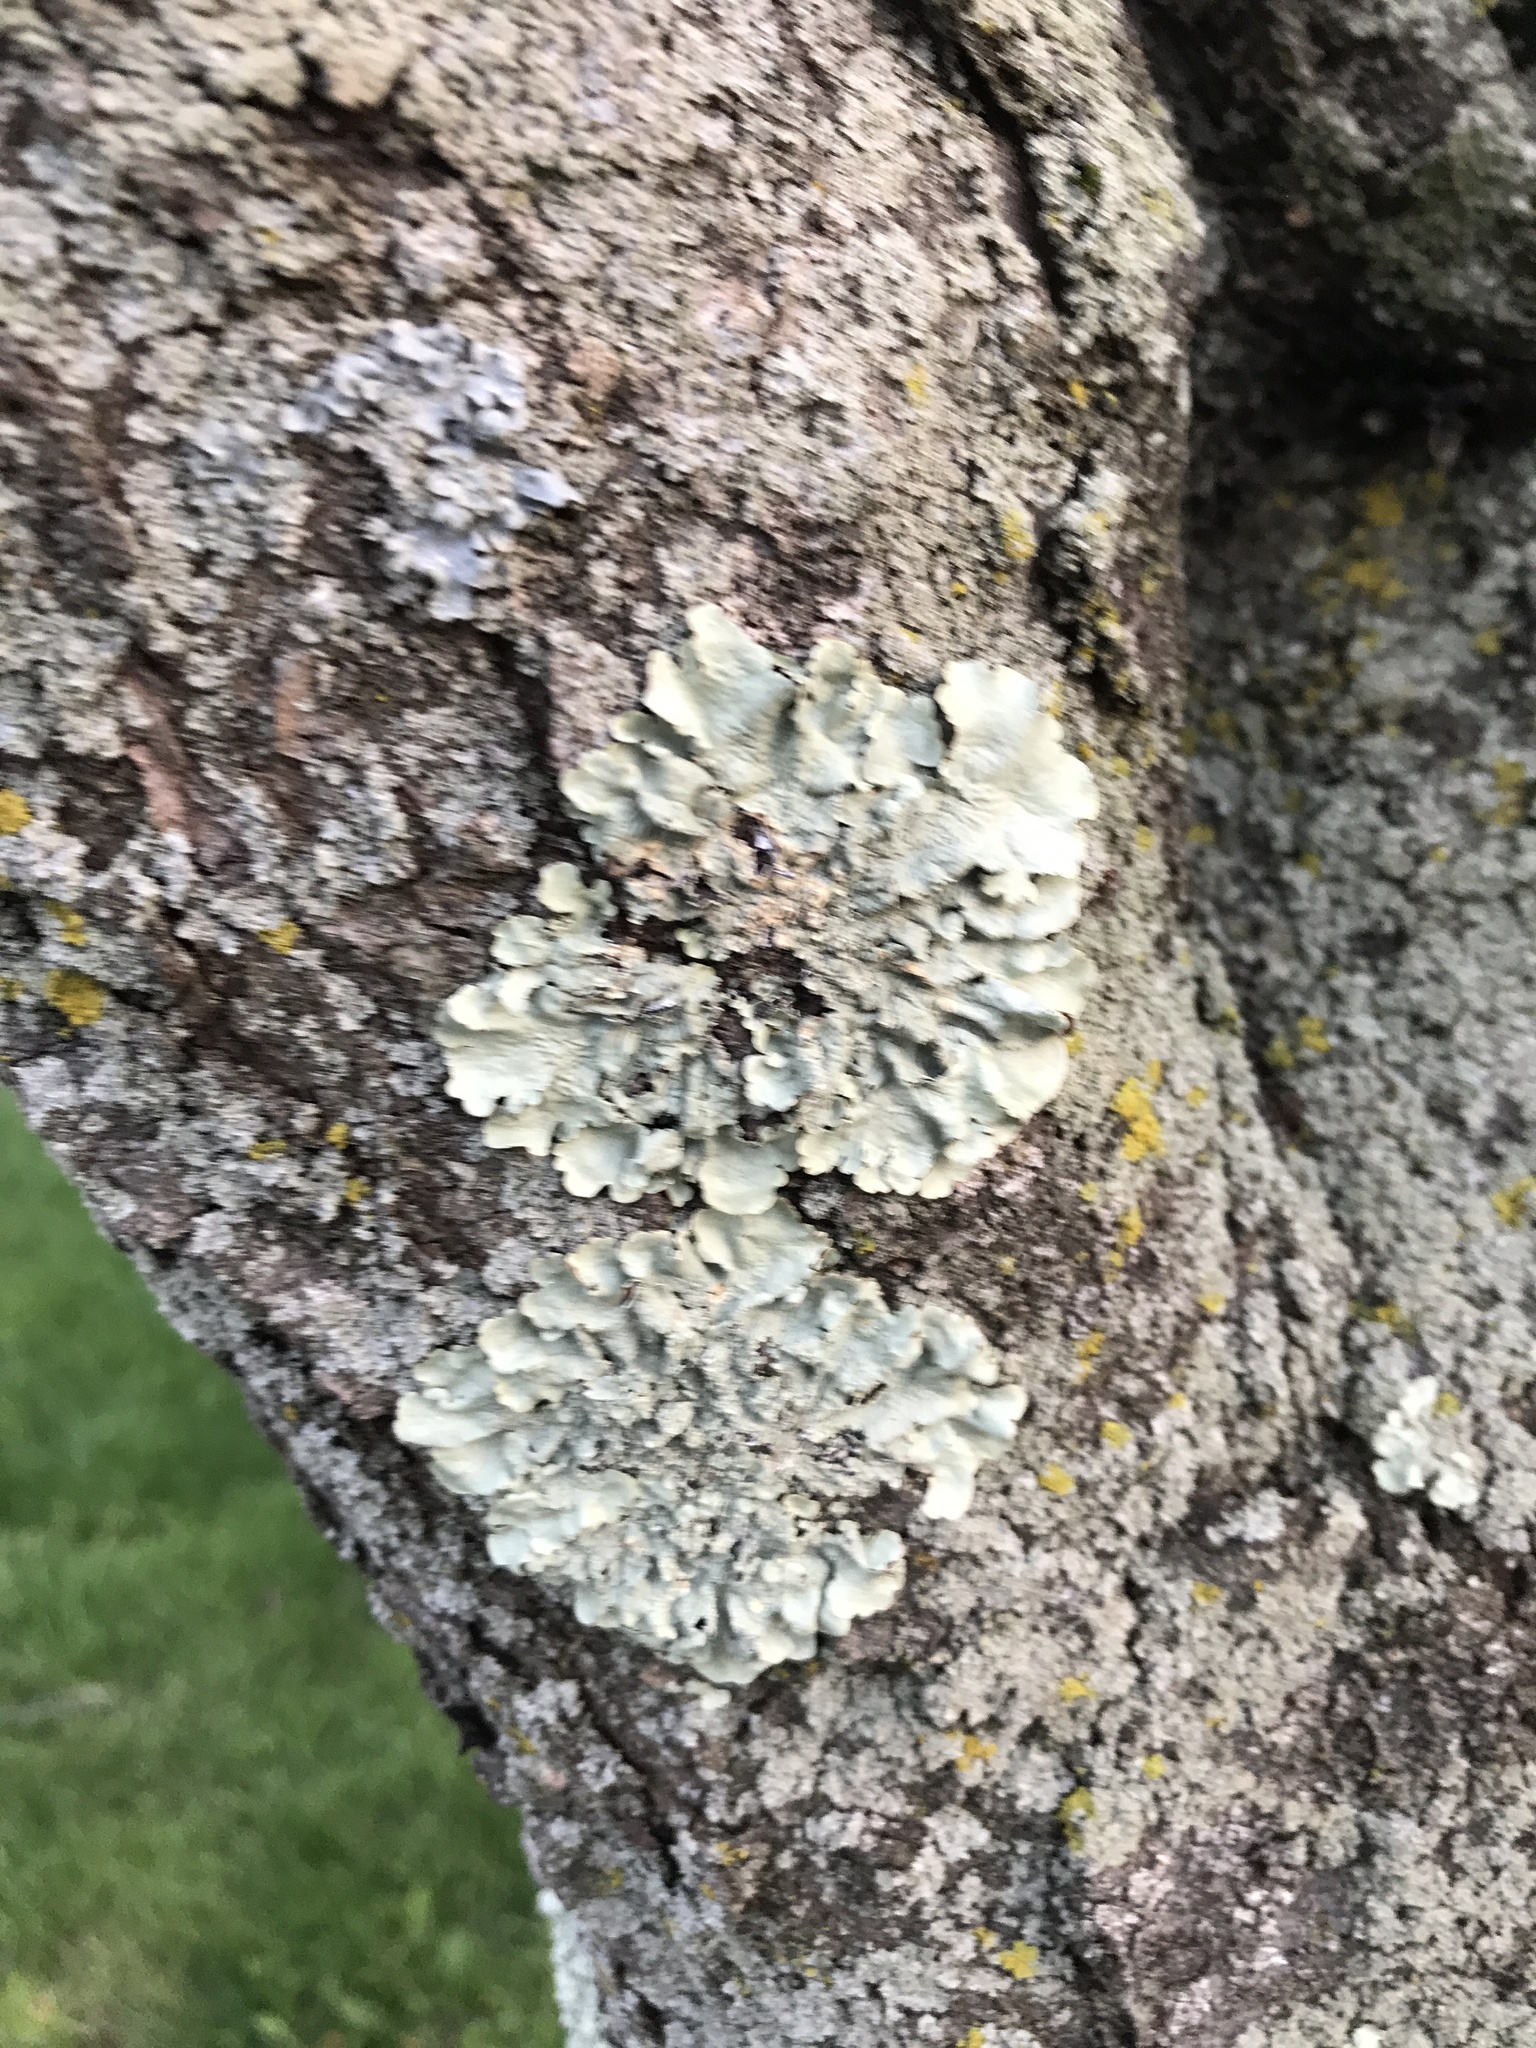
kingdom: Fungi
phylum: Ascomycota
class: Lecanoromycetes
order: Lecanorales
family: Parmeliaceae
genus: Flavoparmelia
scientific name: Flavoparmelia caperata
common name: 40-mile per hour lichen
